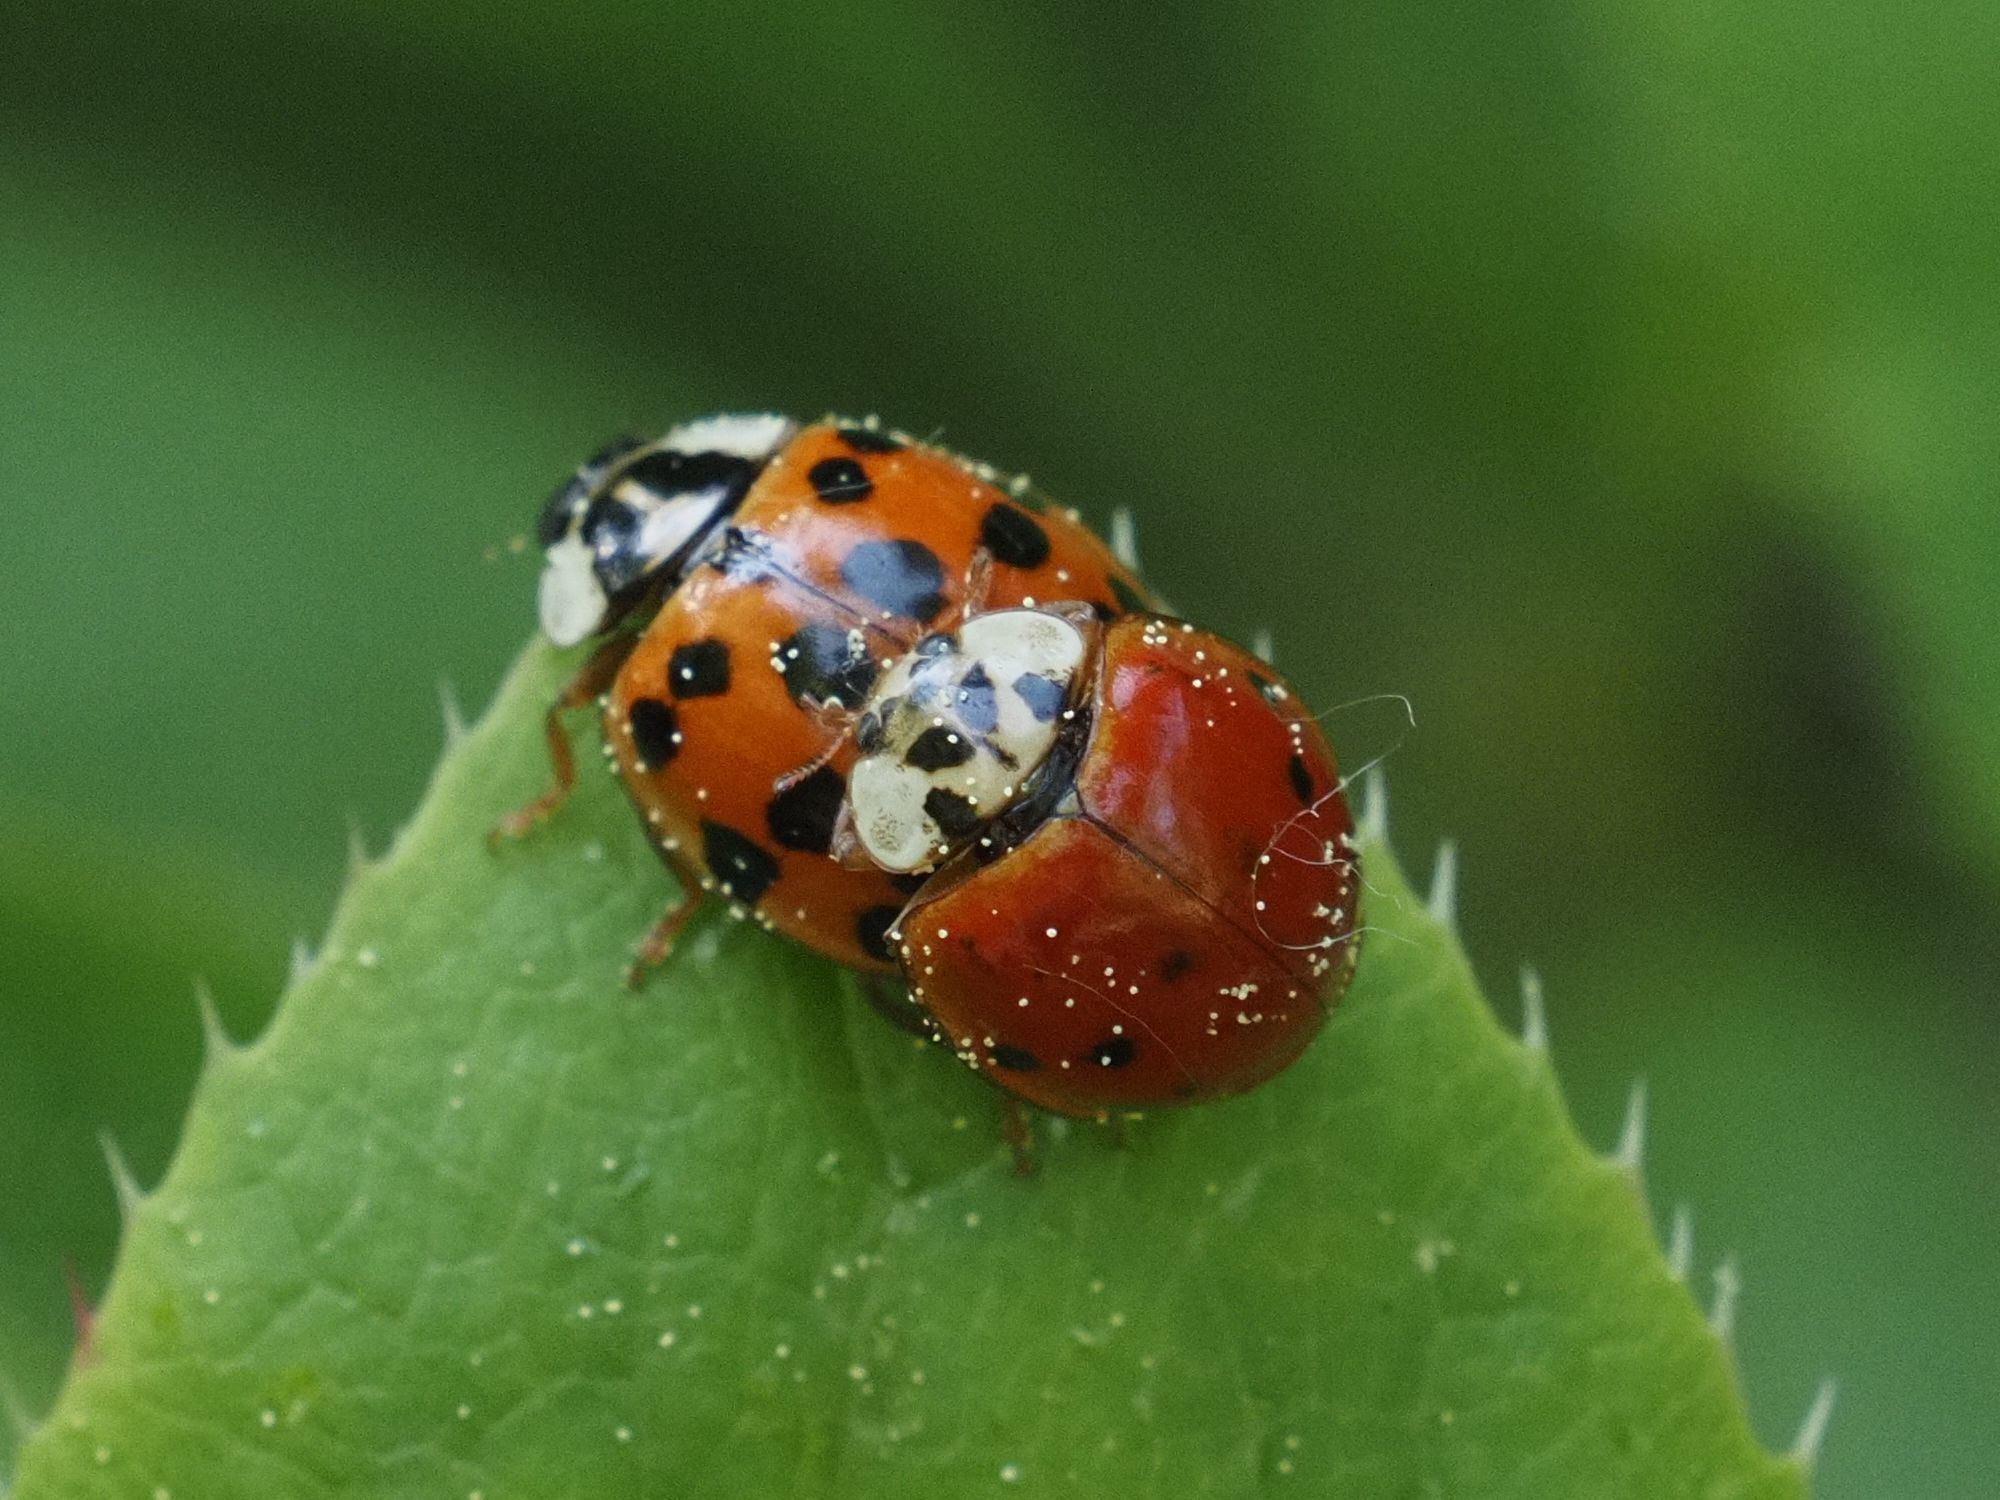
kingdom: Animalia
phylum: Arthropoda
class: Insecta
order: Coleoptera
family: Coccinellidae
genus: Harmonia
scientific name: Harmonia axyridis
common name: Harlequin ladybird
